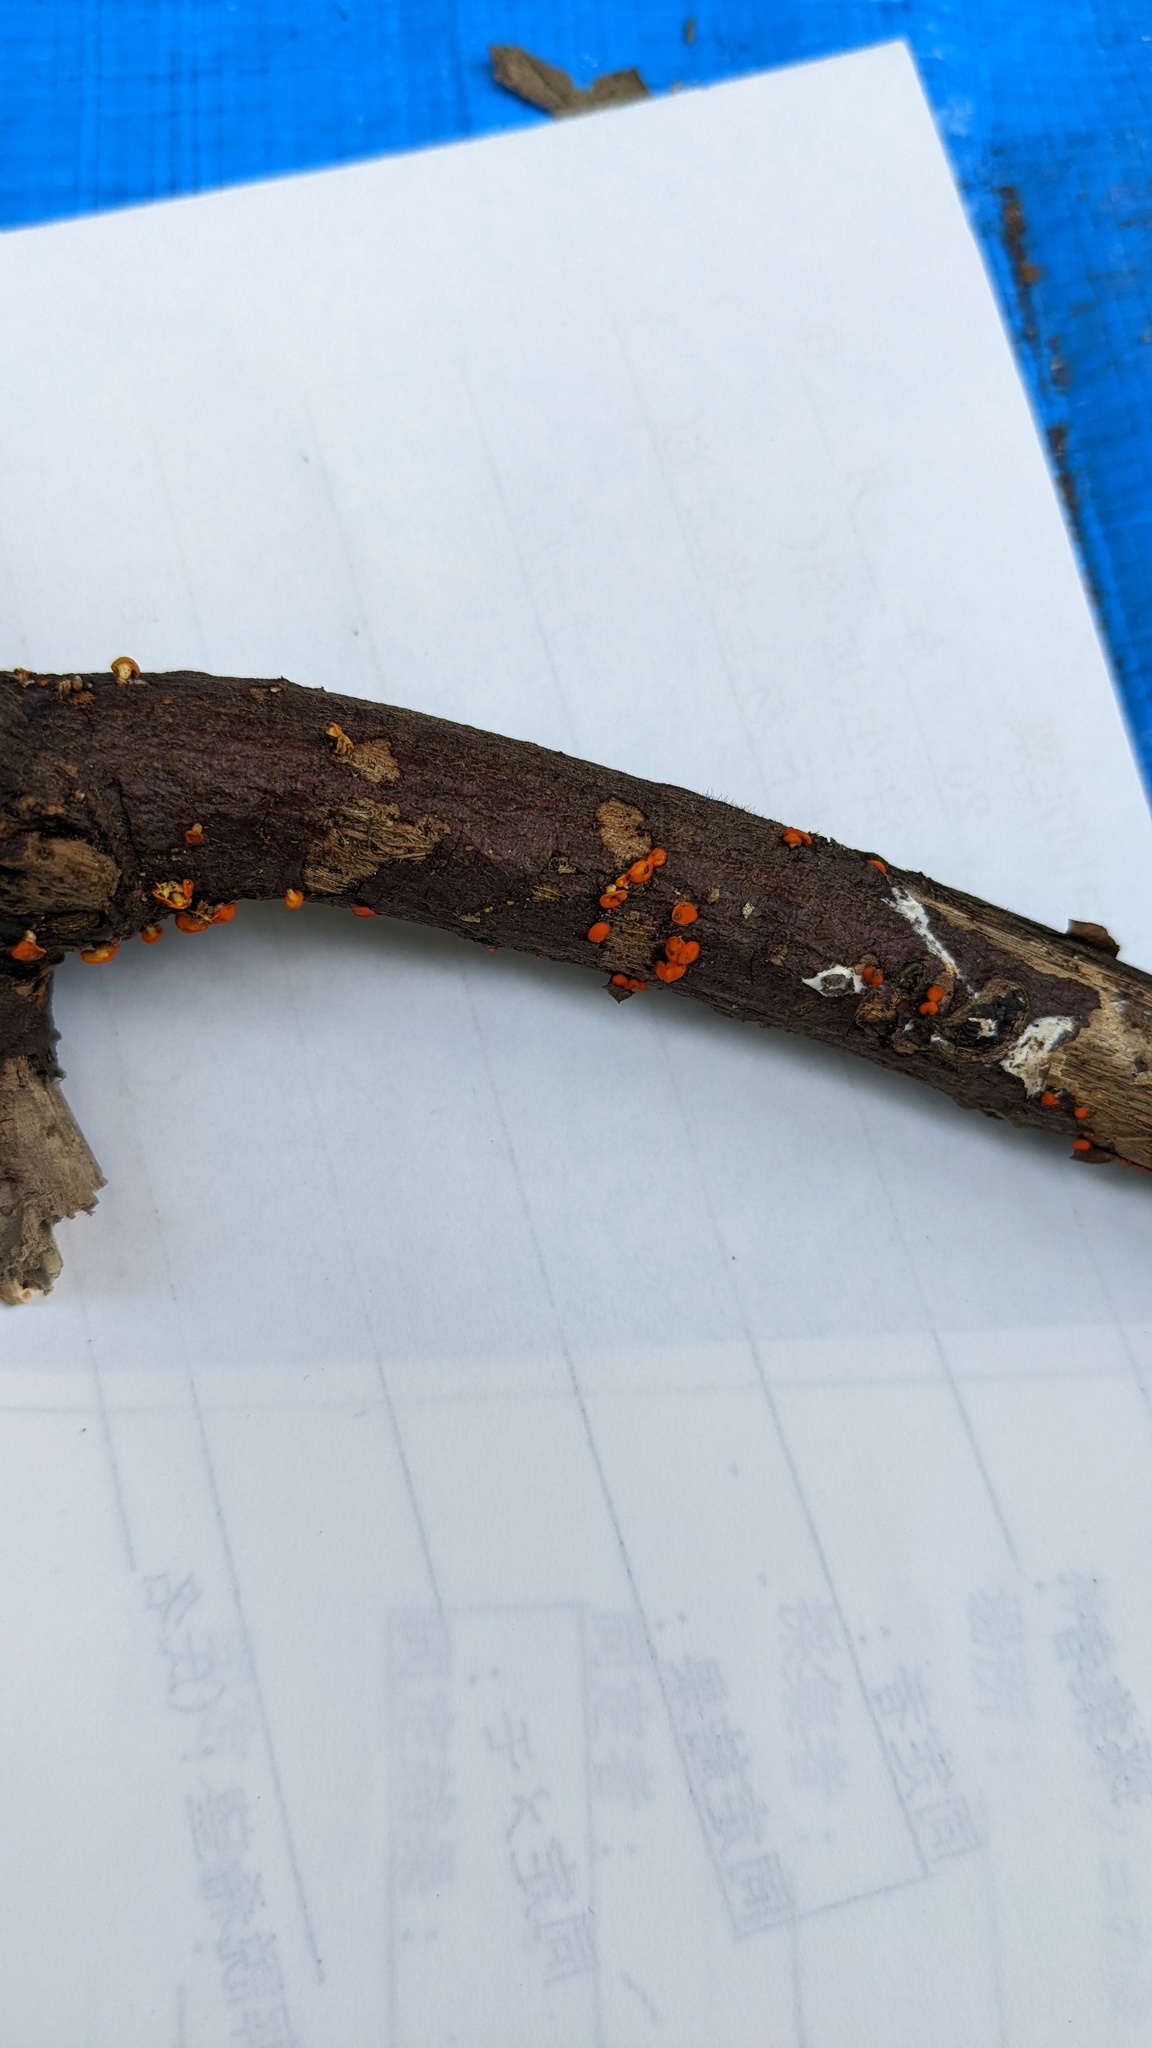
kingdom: Fungi
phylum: Ascomycota
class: Leotiomycetes
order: Helotiales
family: Helotiaceae
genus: Dicephalospora
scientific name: Dicephalospora rufocornea
